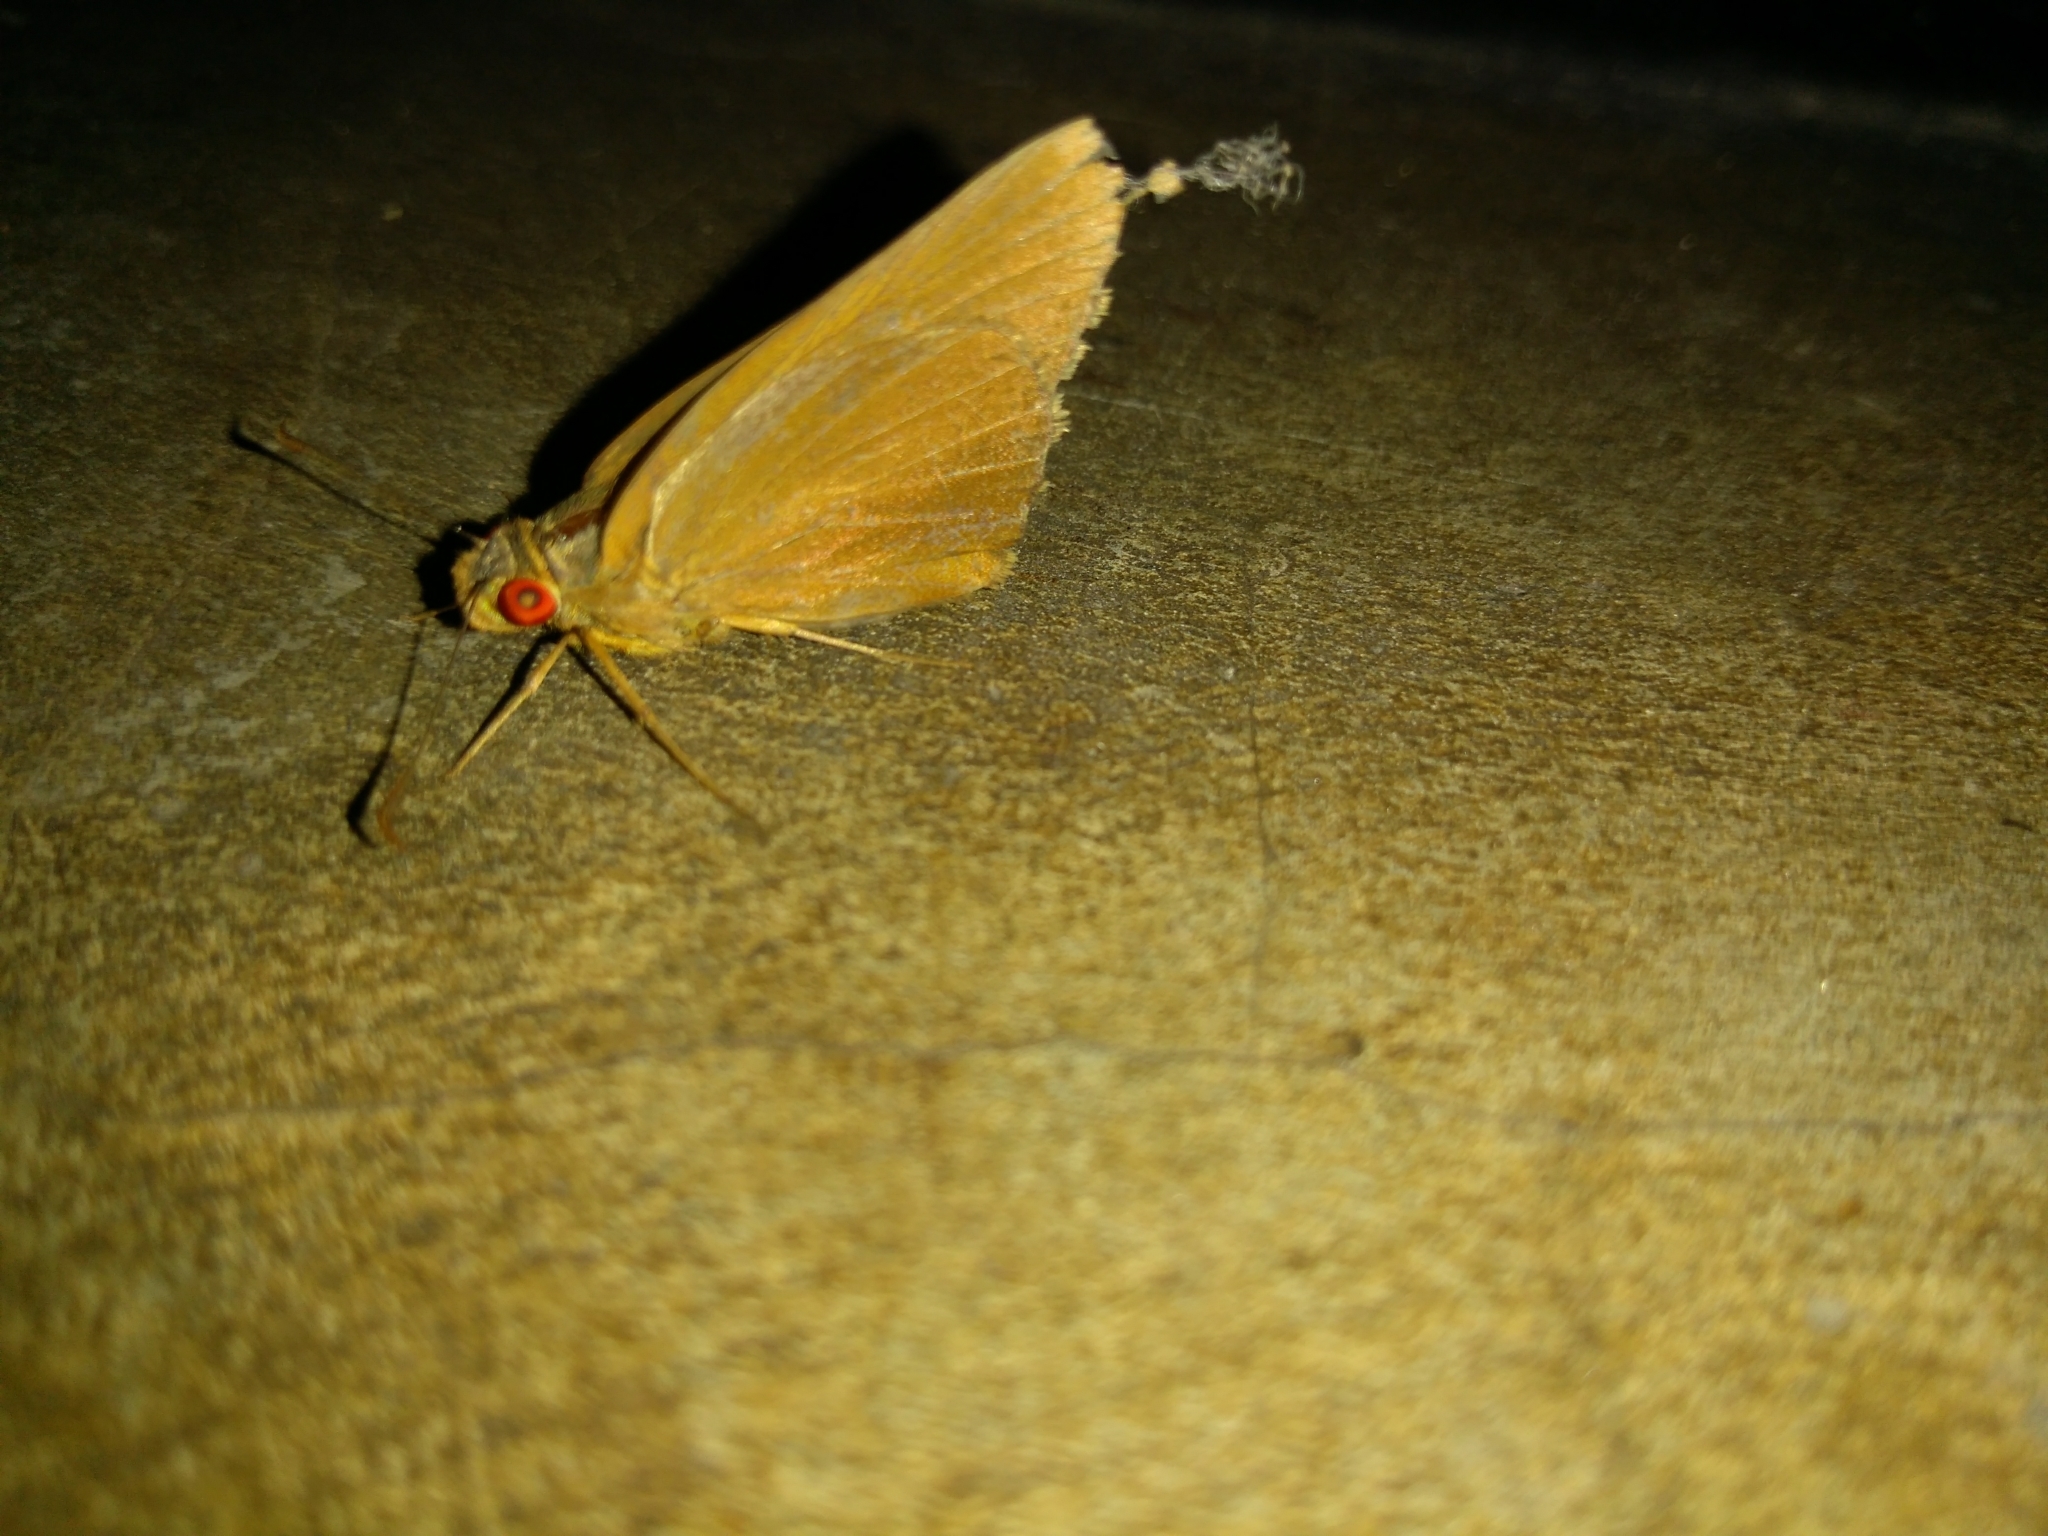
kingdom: Animalia
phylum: Arthropoda
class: Insecta
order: Lepidoptera
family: Hesperiidae
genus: Matapa
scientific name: Matapa aria
